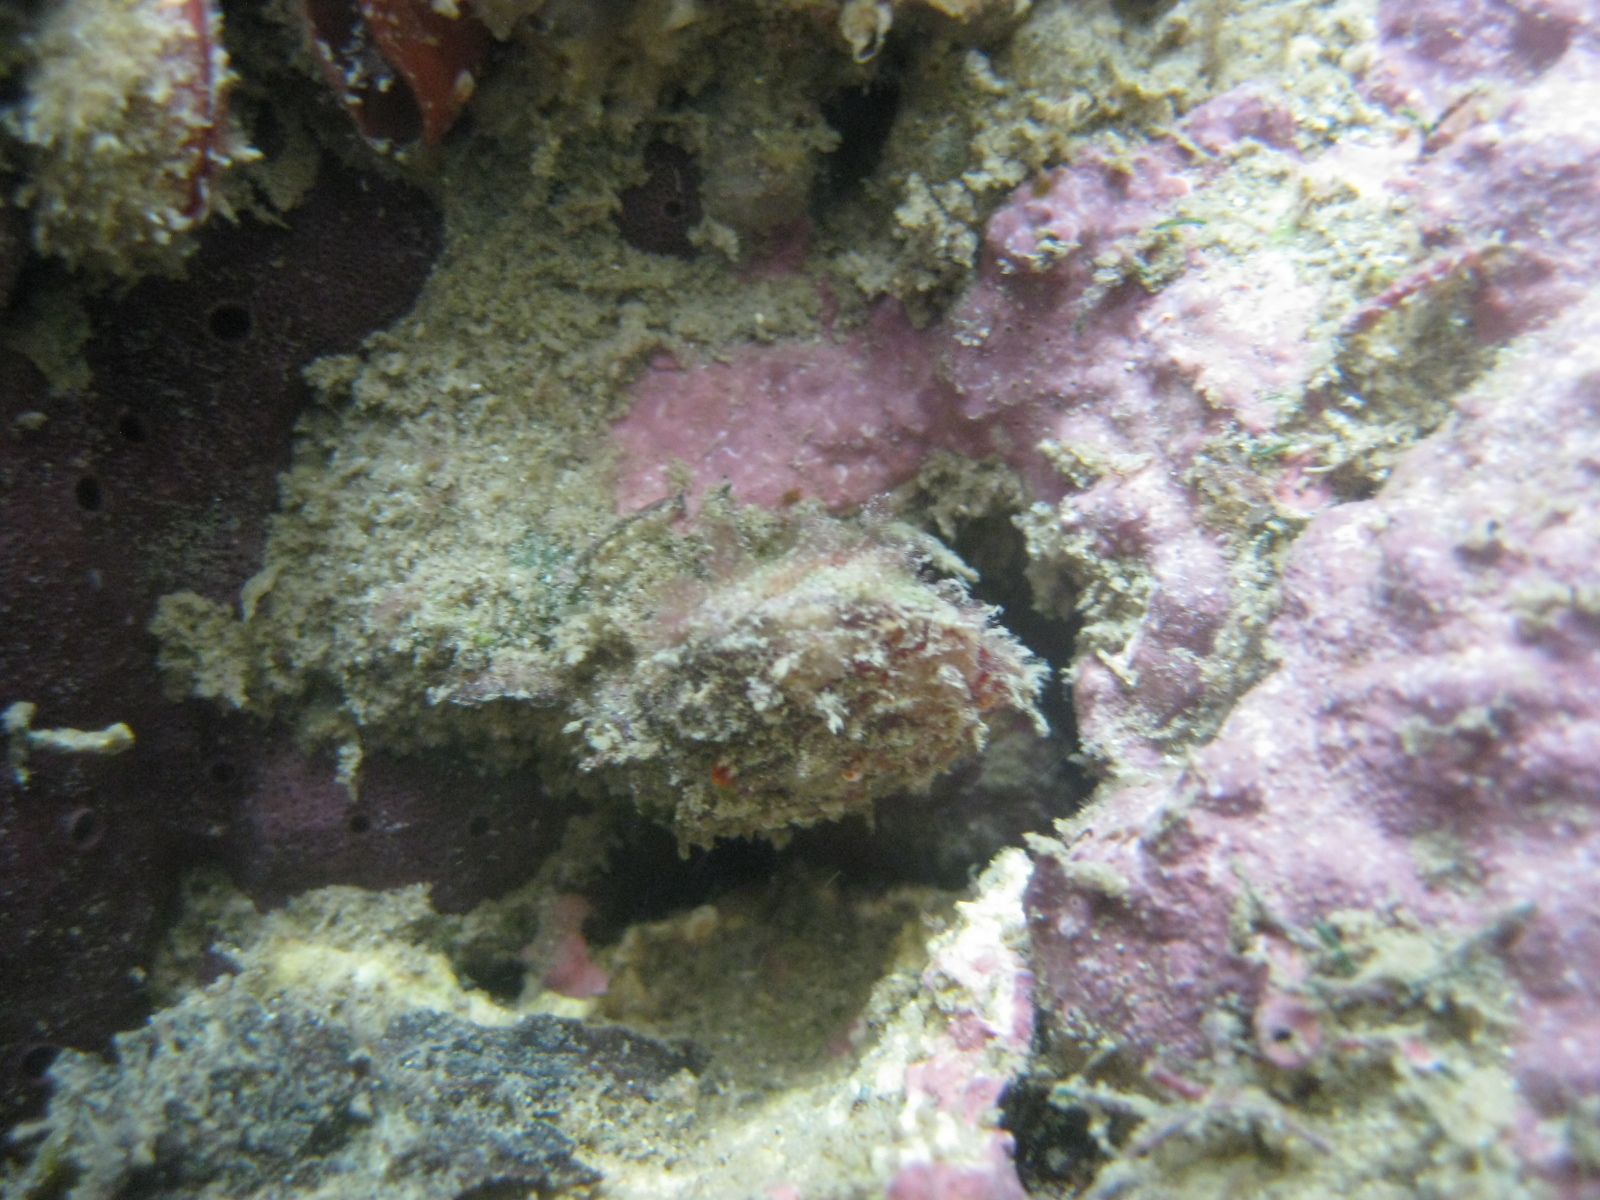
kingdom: Animalia
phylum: Brachiopoda
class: Rhynchonellata
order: Terebratulida
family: Terebratellidae
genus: Calloria
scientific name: Calloria inconspicua
